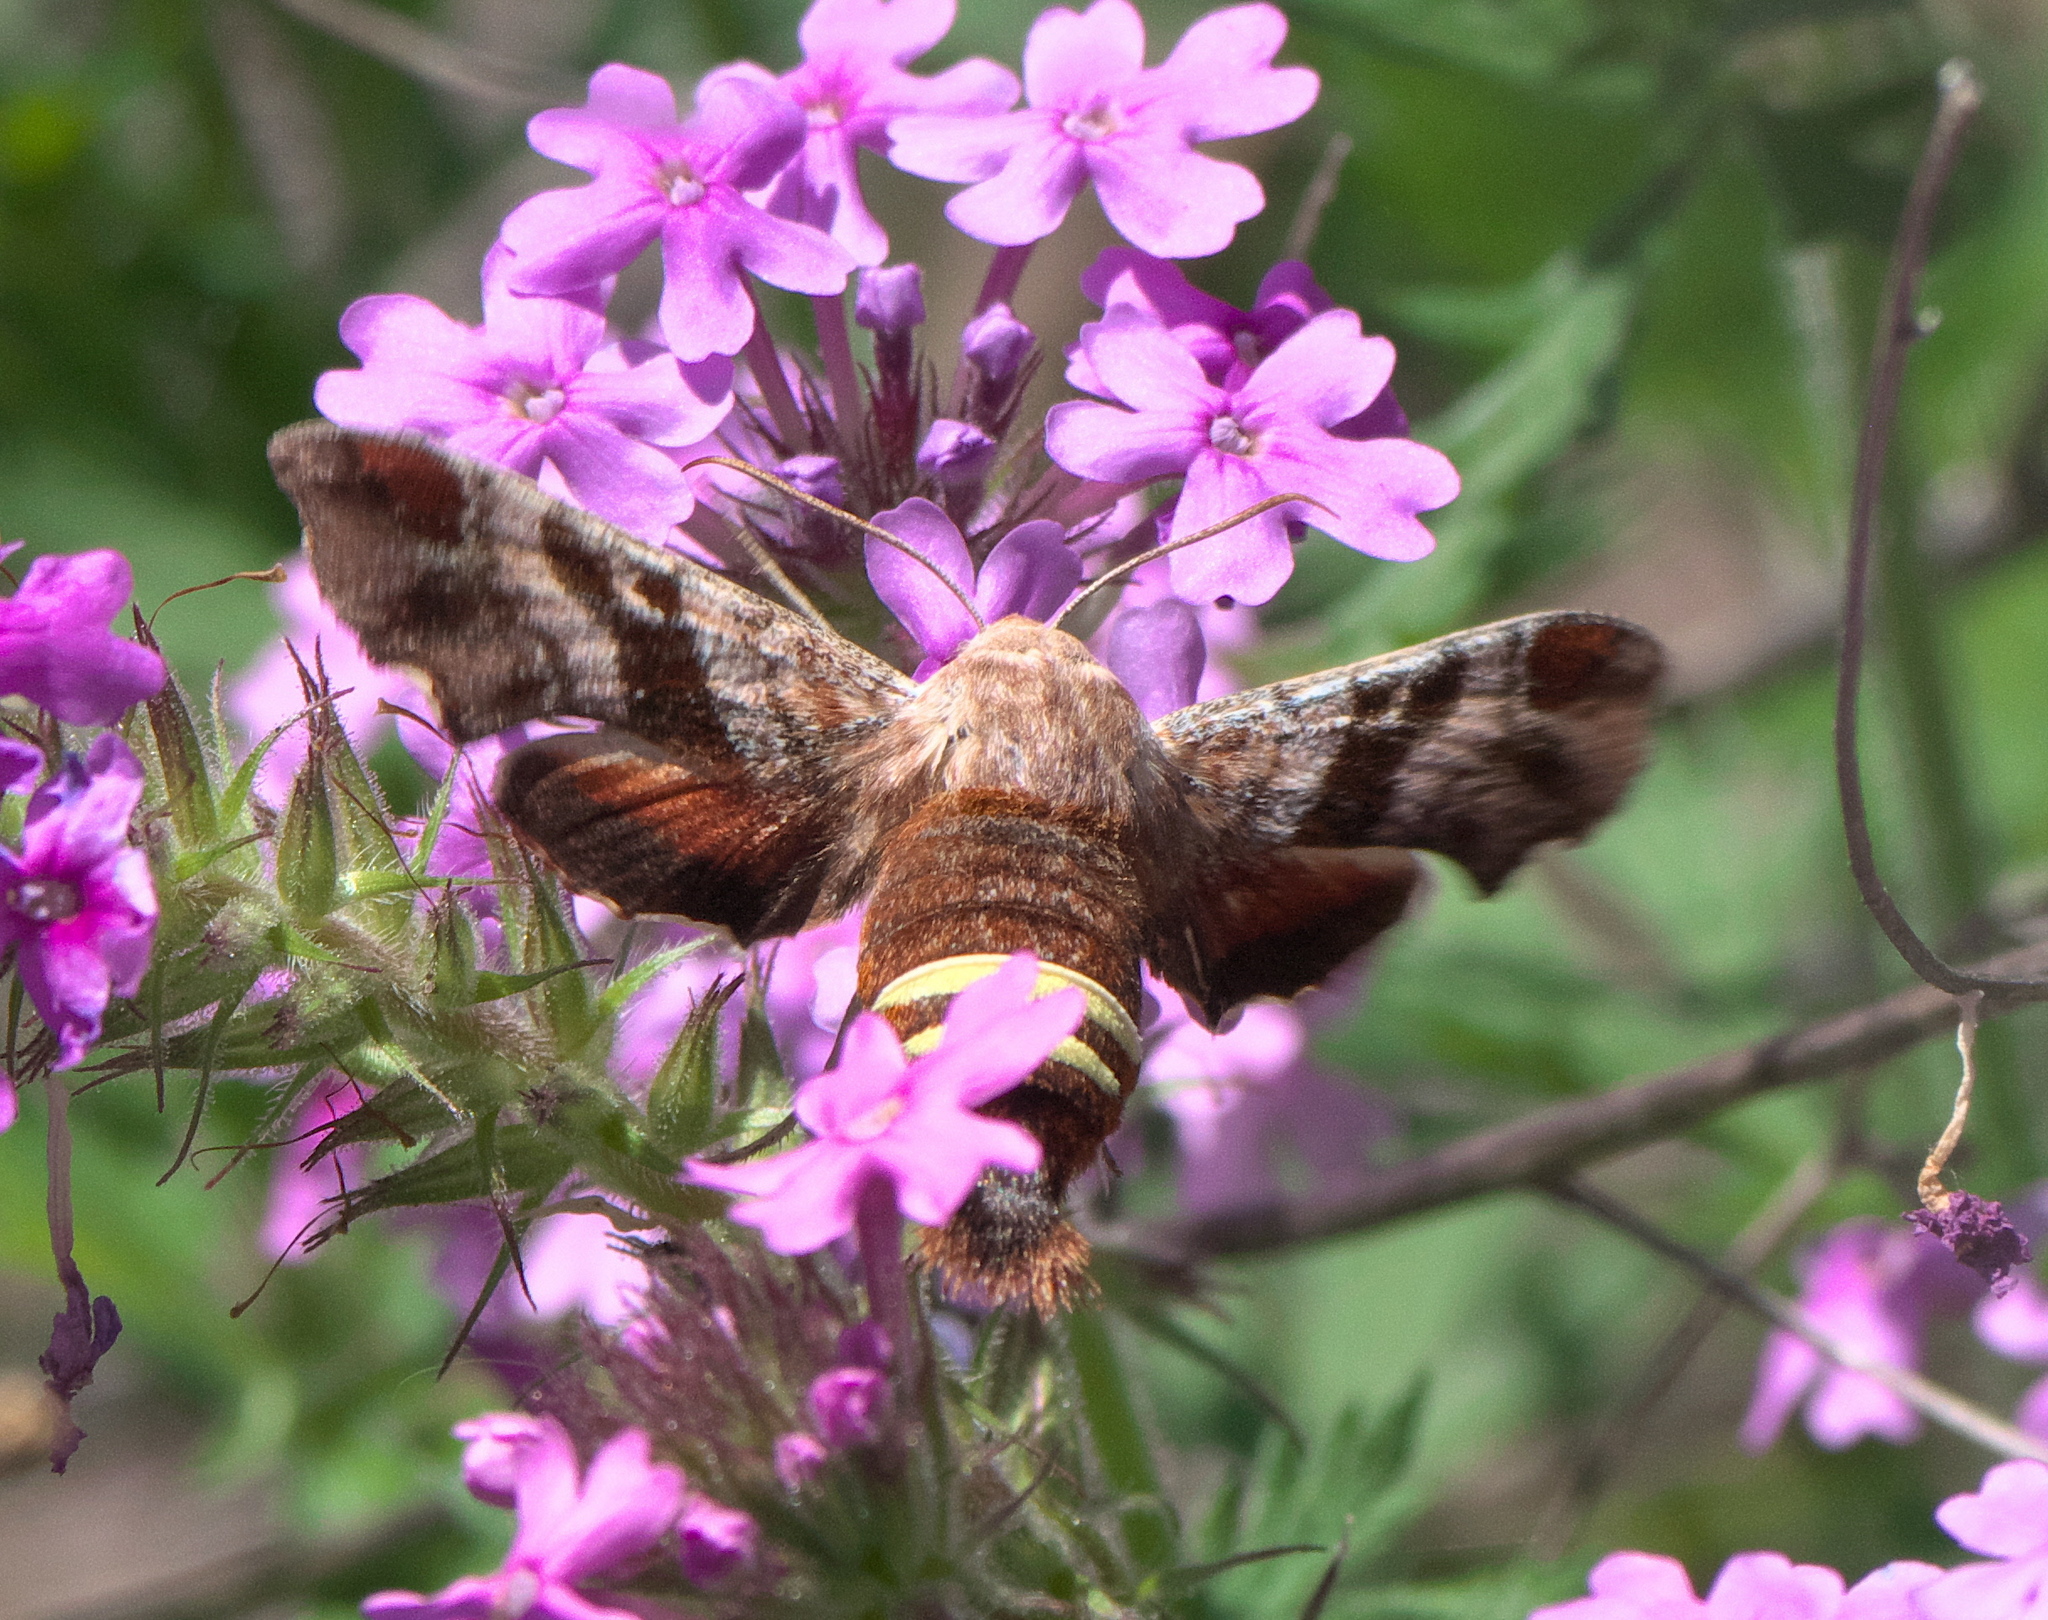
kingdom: Animalia
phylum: Arthropoda
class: Insecta
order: Lepidoptera
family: Sphingidae
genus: Amphion
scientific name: Amphion floridensis
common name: Nessus sphinx
